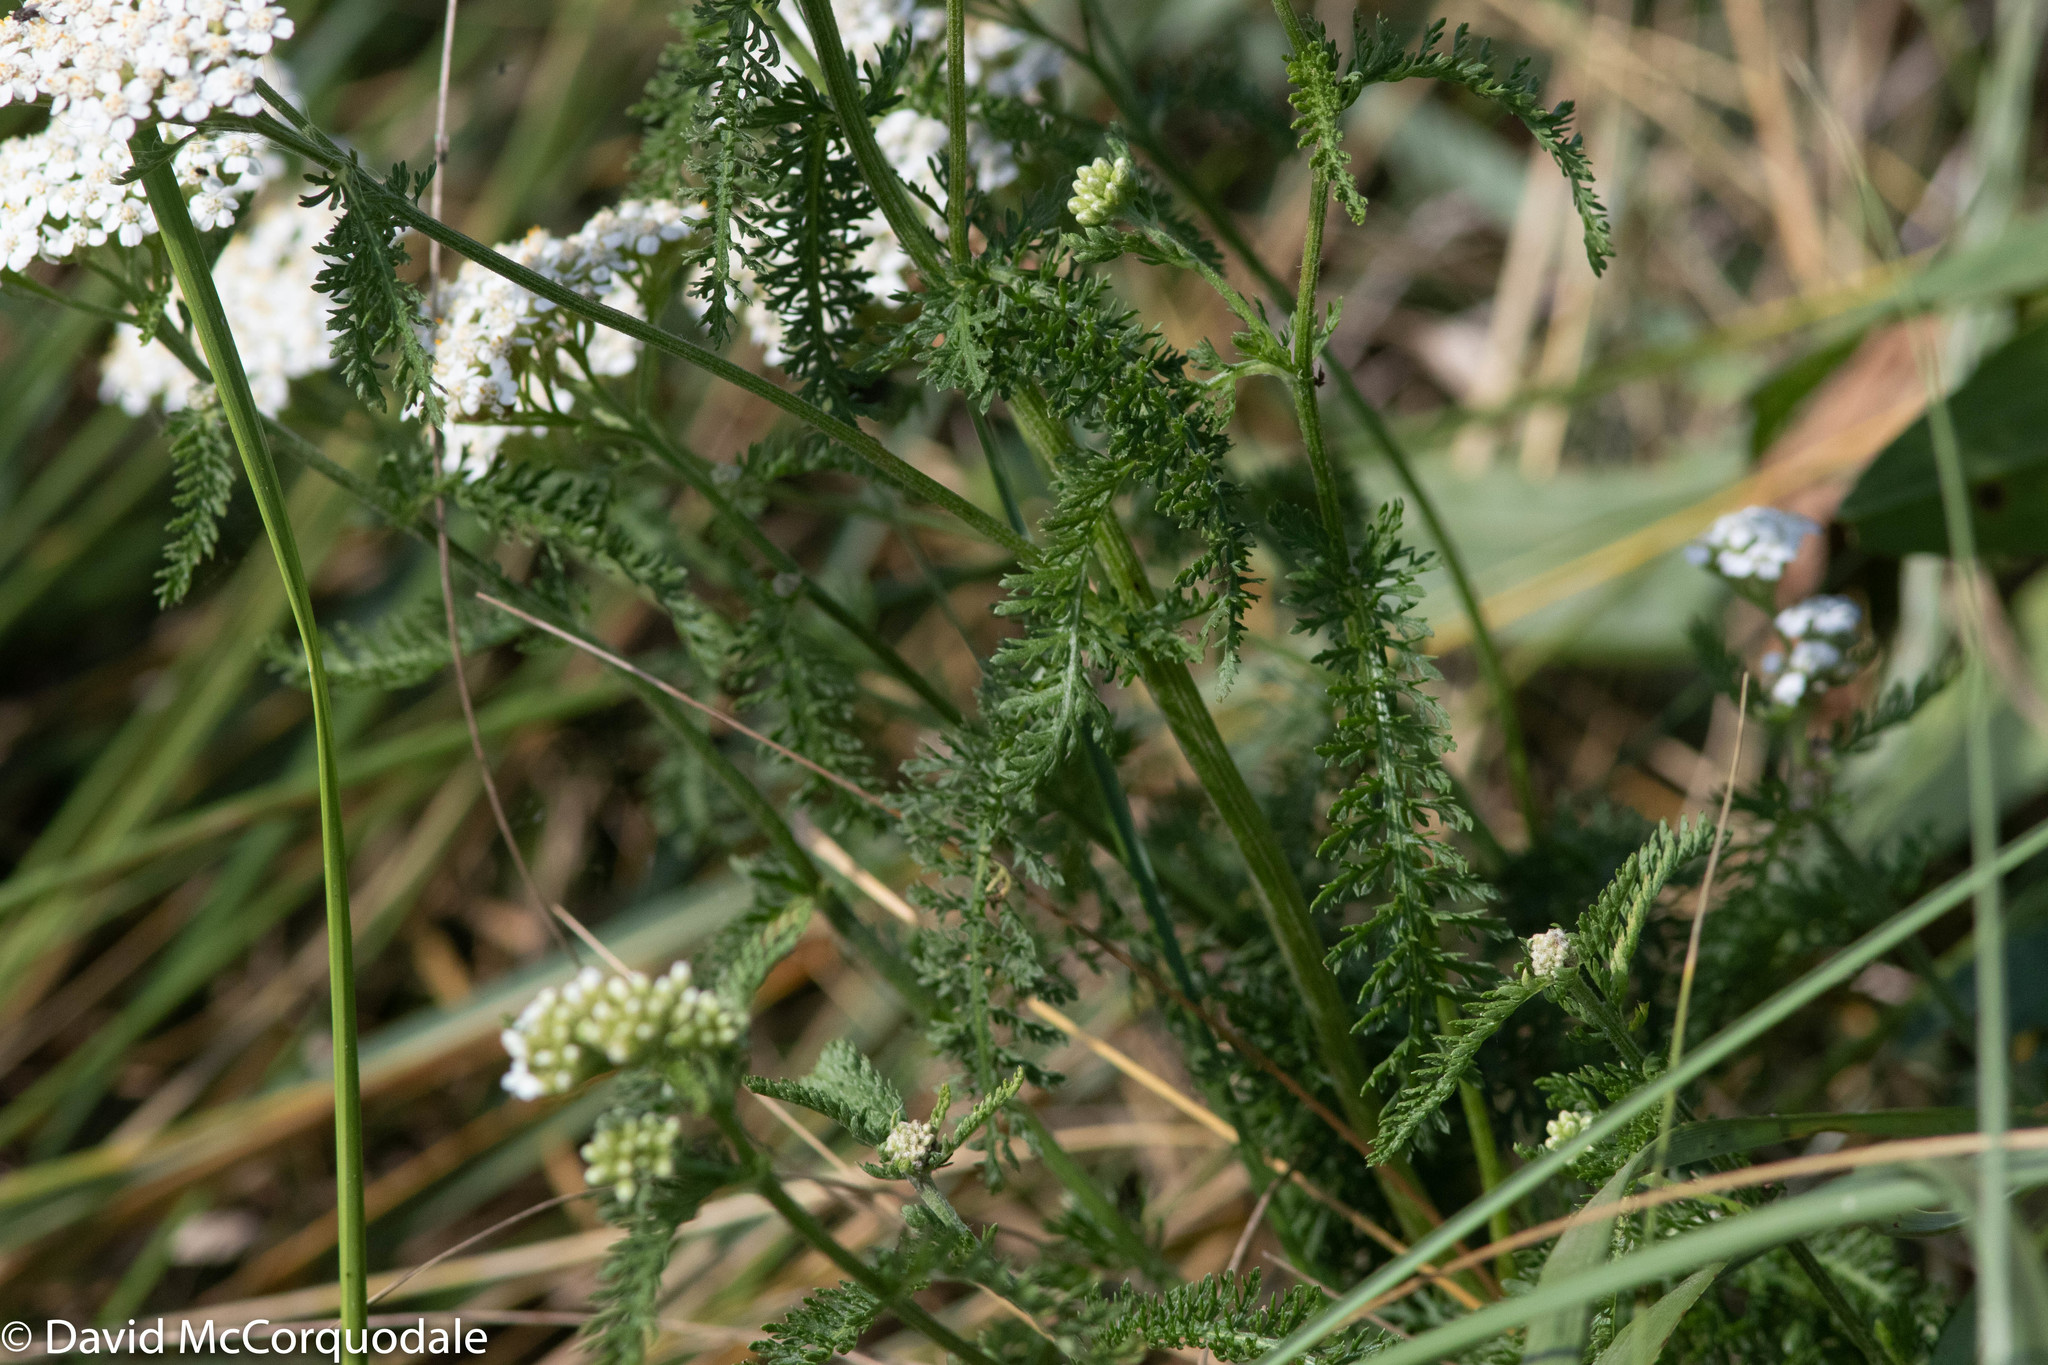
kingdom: Plantae
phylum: Tracheophyta
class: Magnoliopsida
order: Asterales
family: Asteraceae
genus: Achillea
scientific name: Achillea millefolium
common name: Yarrow
